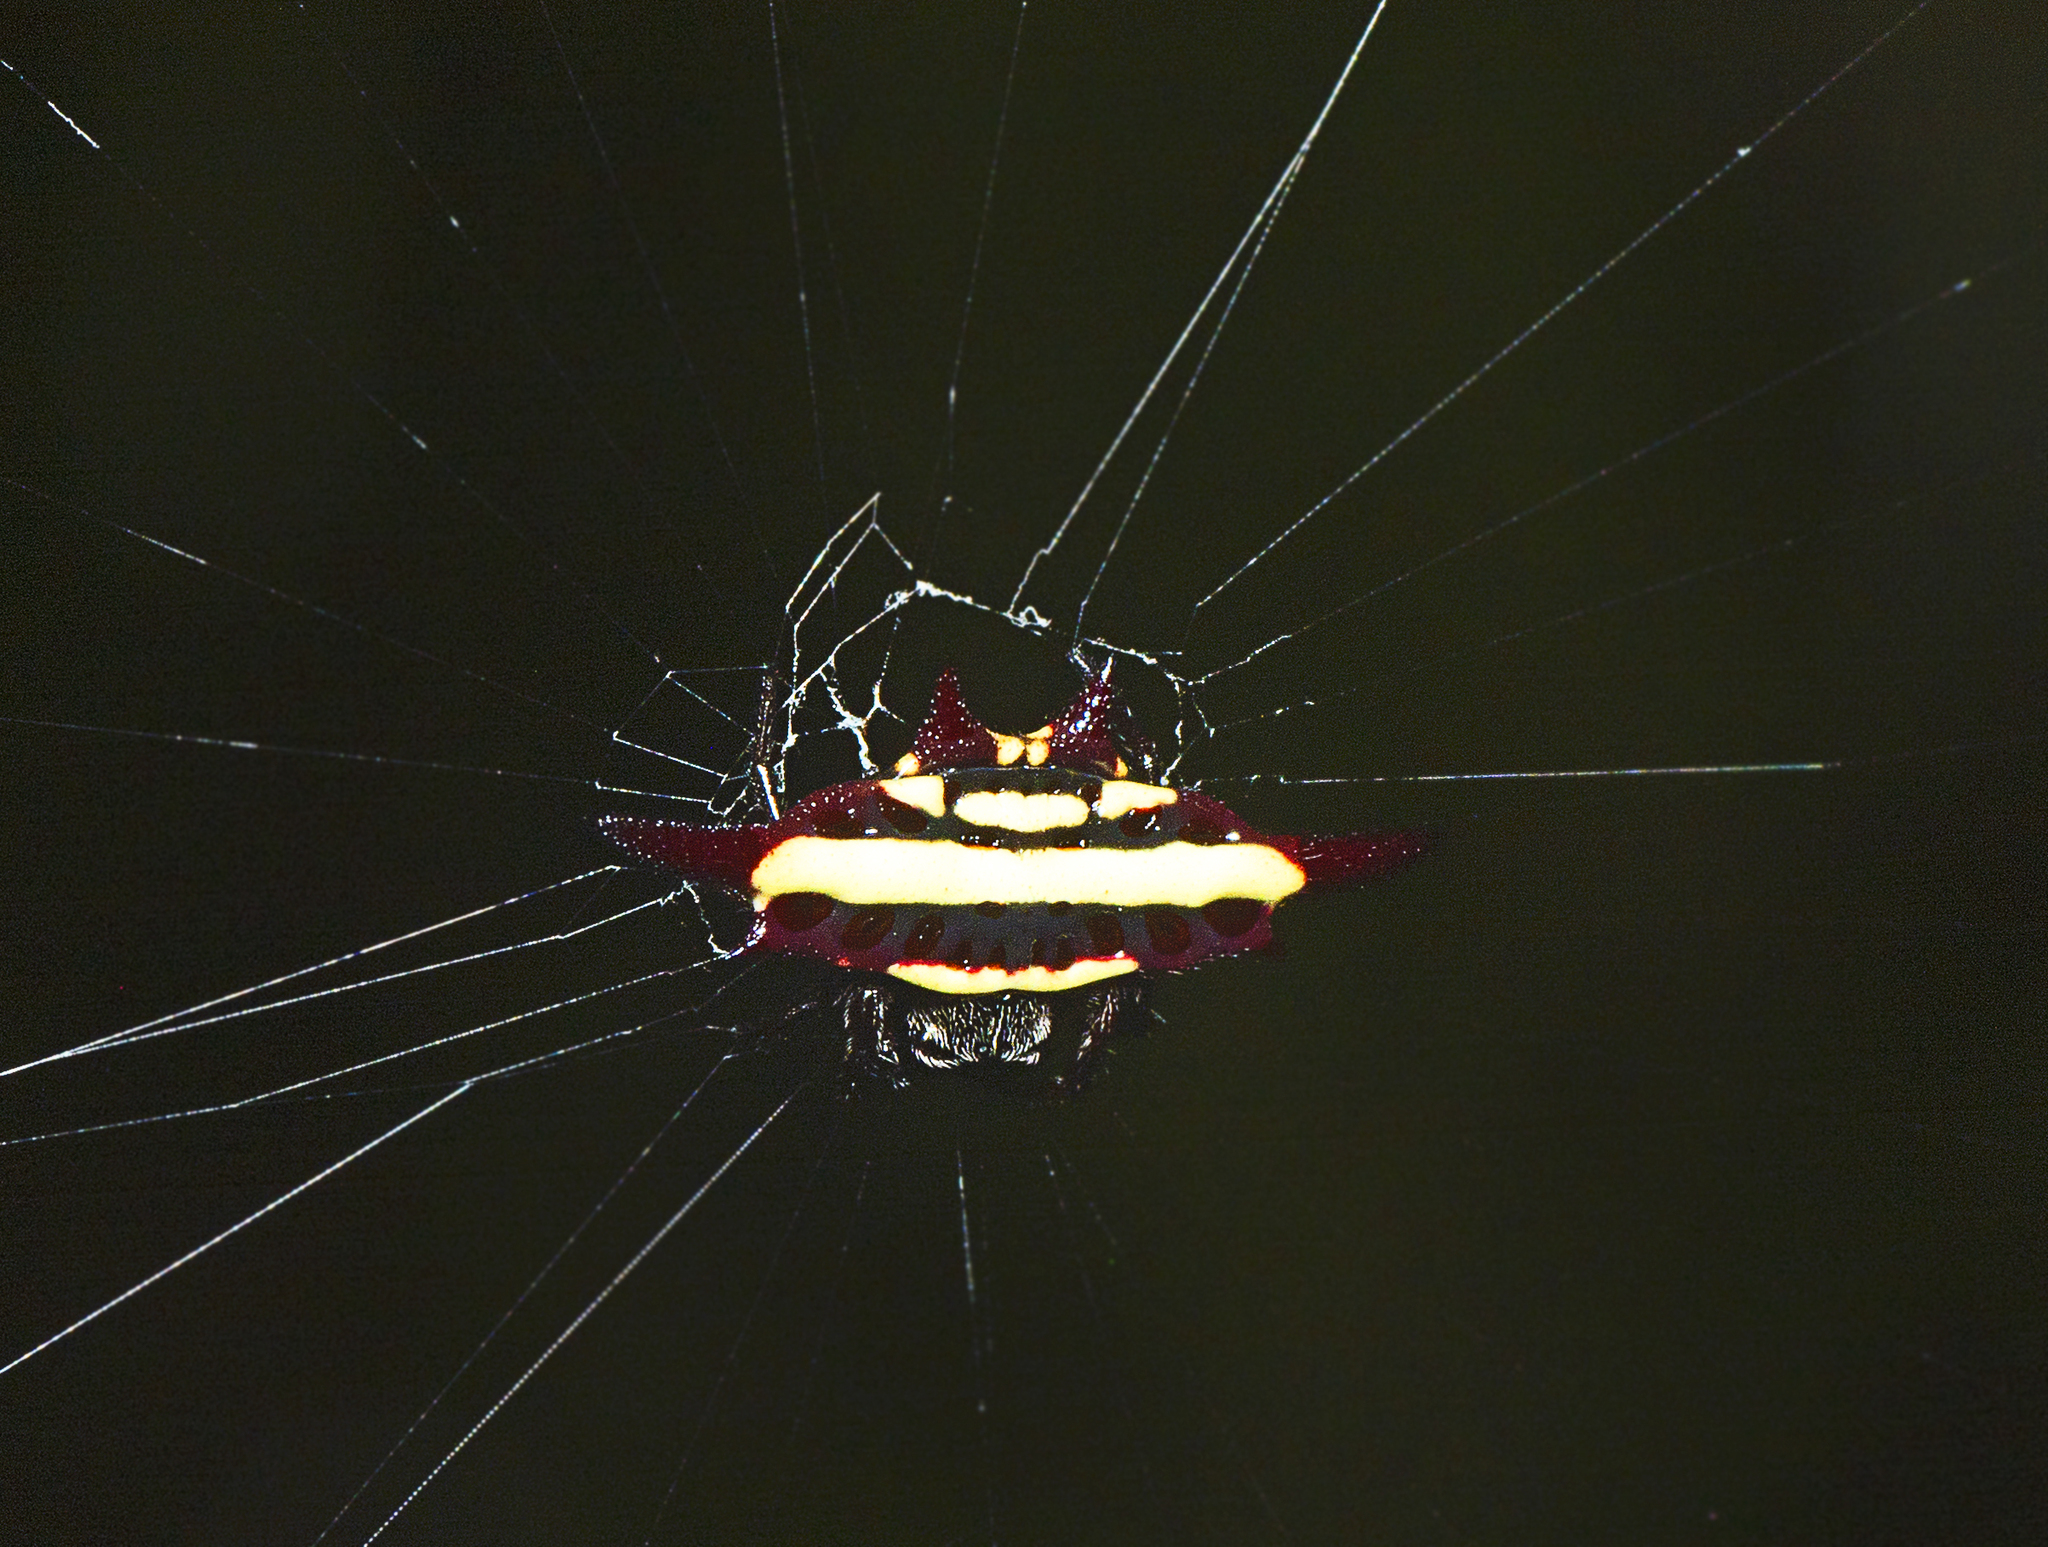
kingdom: Animalia
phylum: Arthropoda
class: Arachnida
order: Araneae
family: Araneidae
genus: Gasteracantha
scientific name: Gasteracantha fornicata
